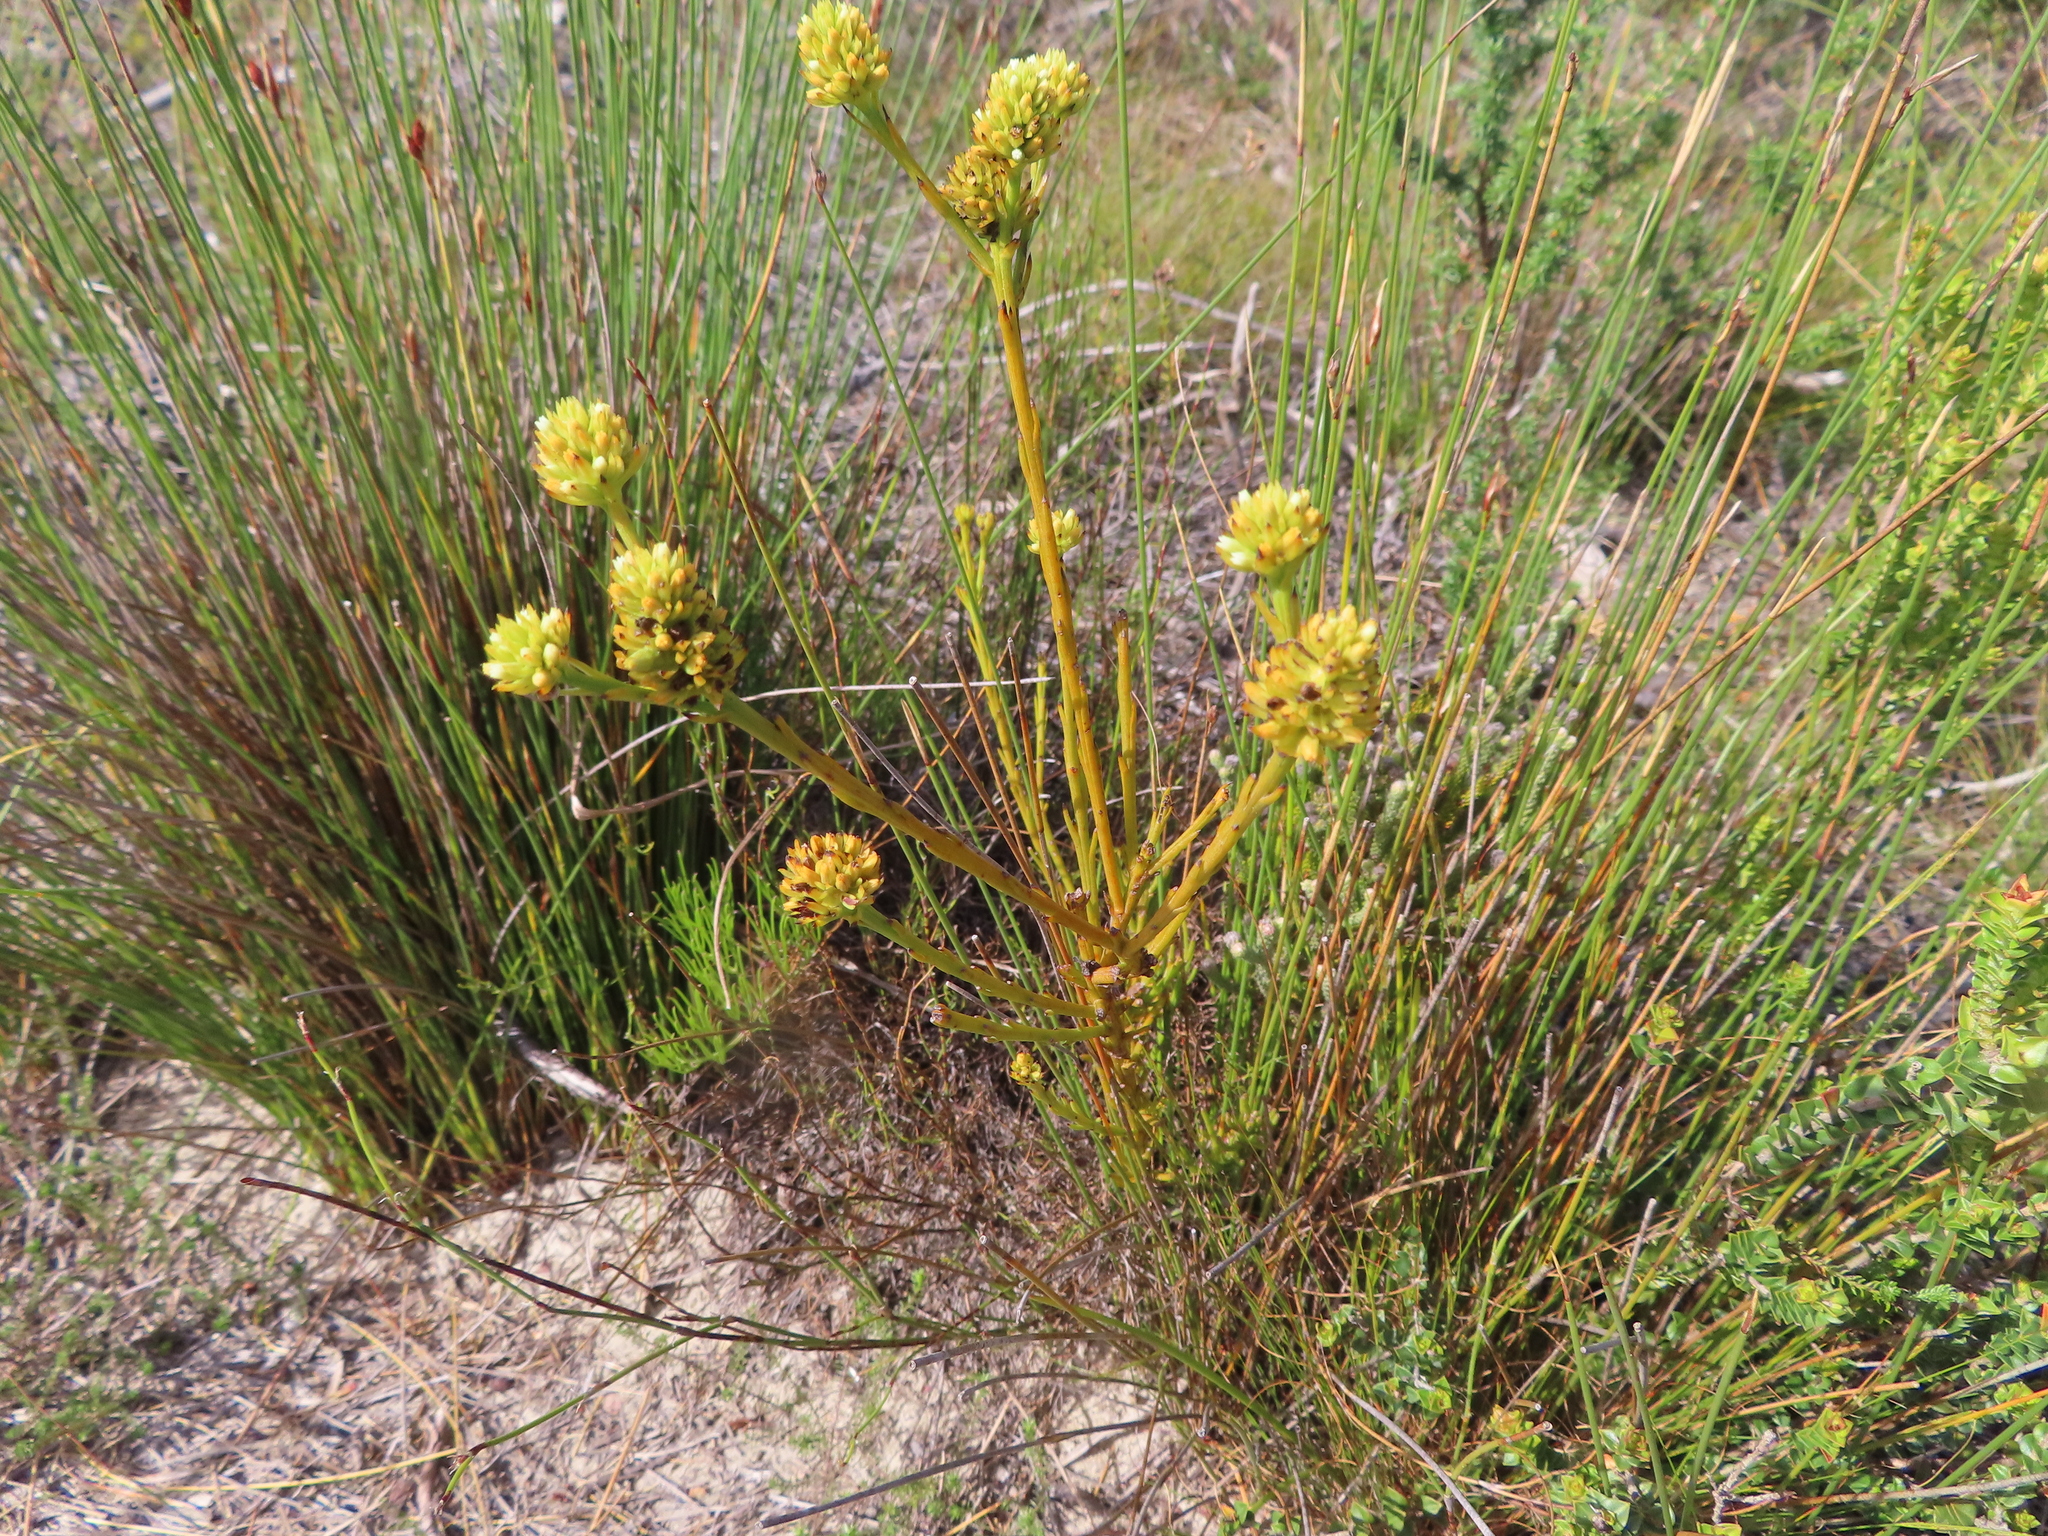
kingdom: Plantae
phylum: Tracheophyta
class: Magnoliopsida
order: Santalales
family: Thesiaceae
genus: Thesium
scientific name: Thesium spicatum
